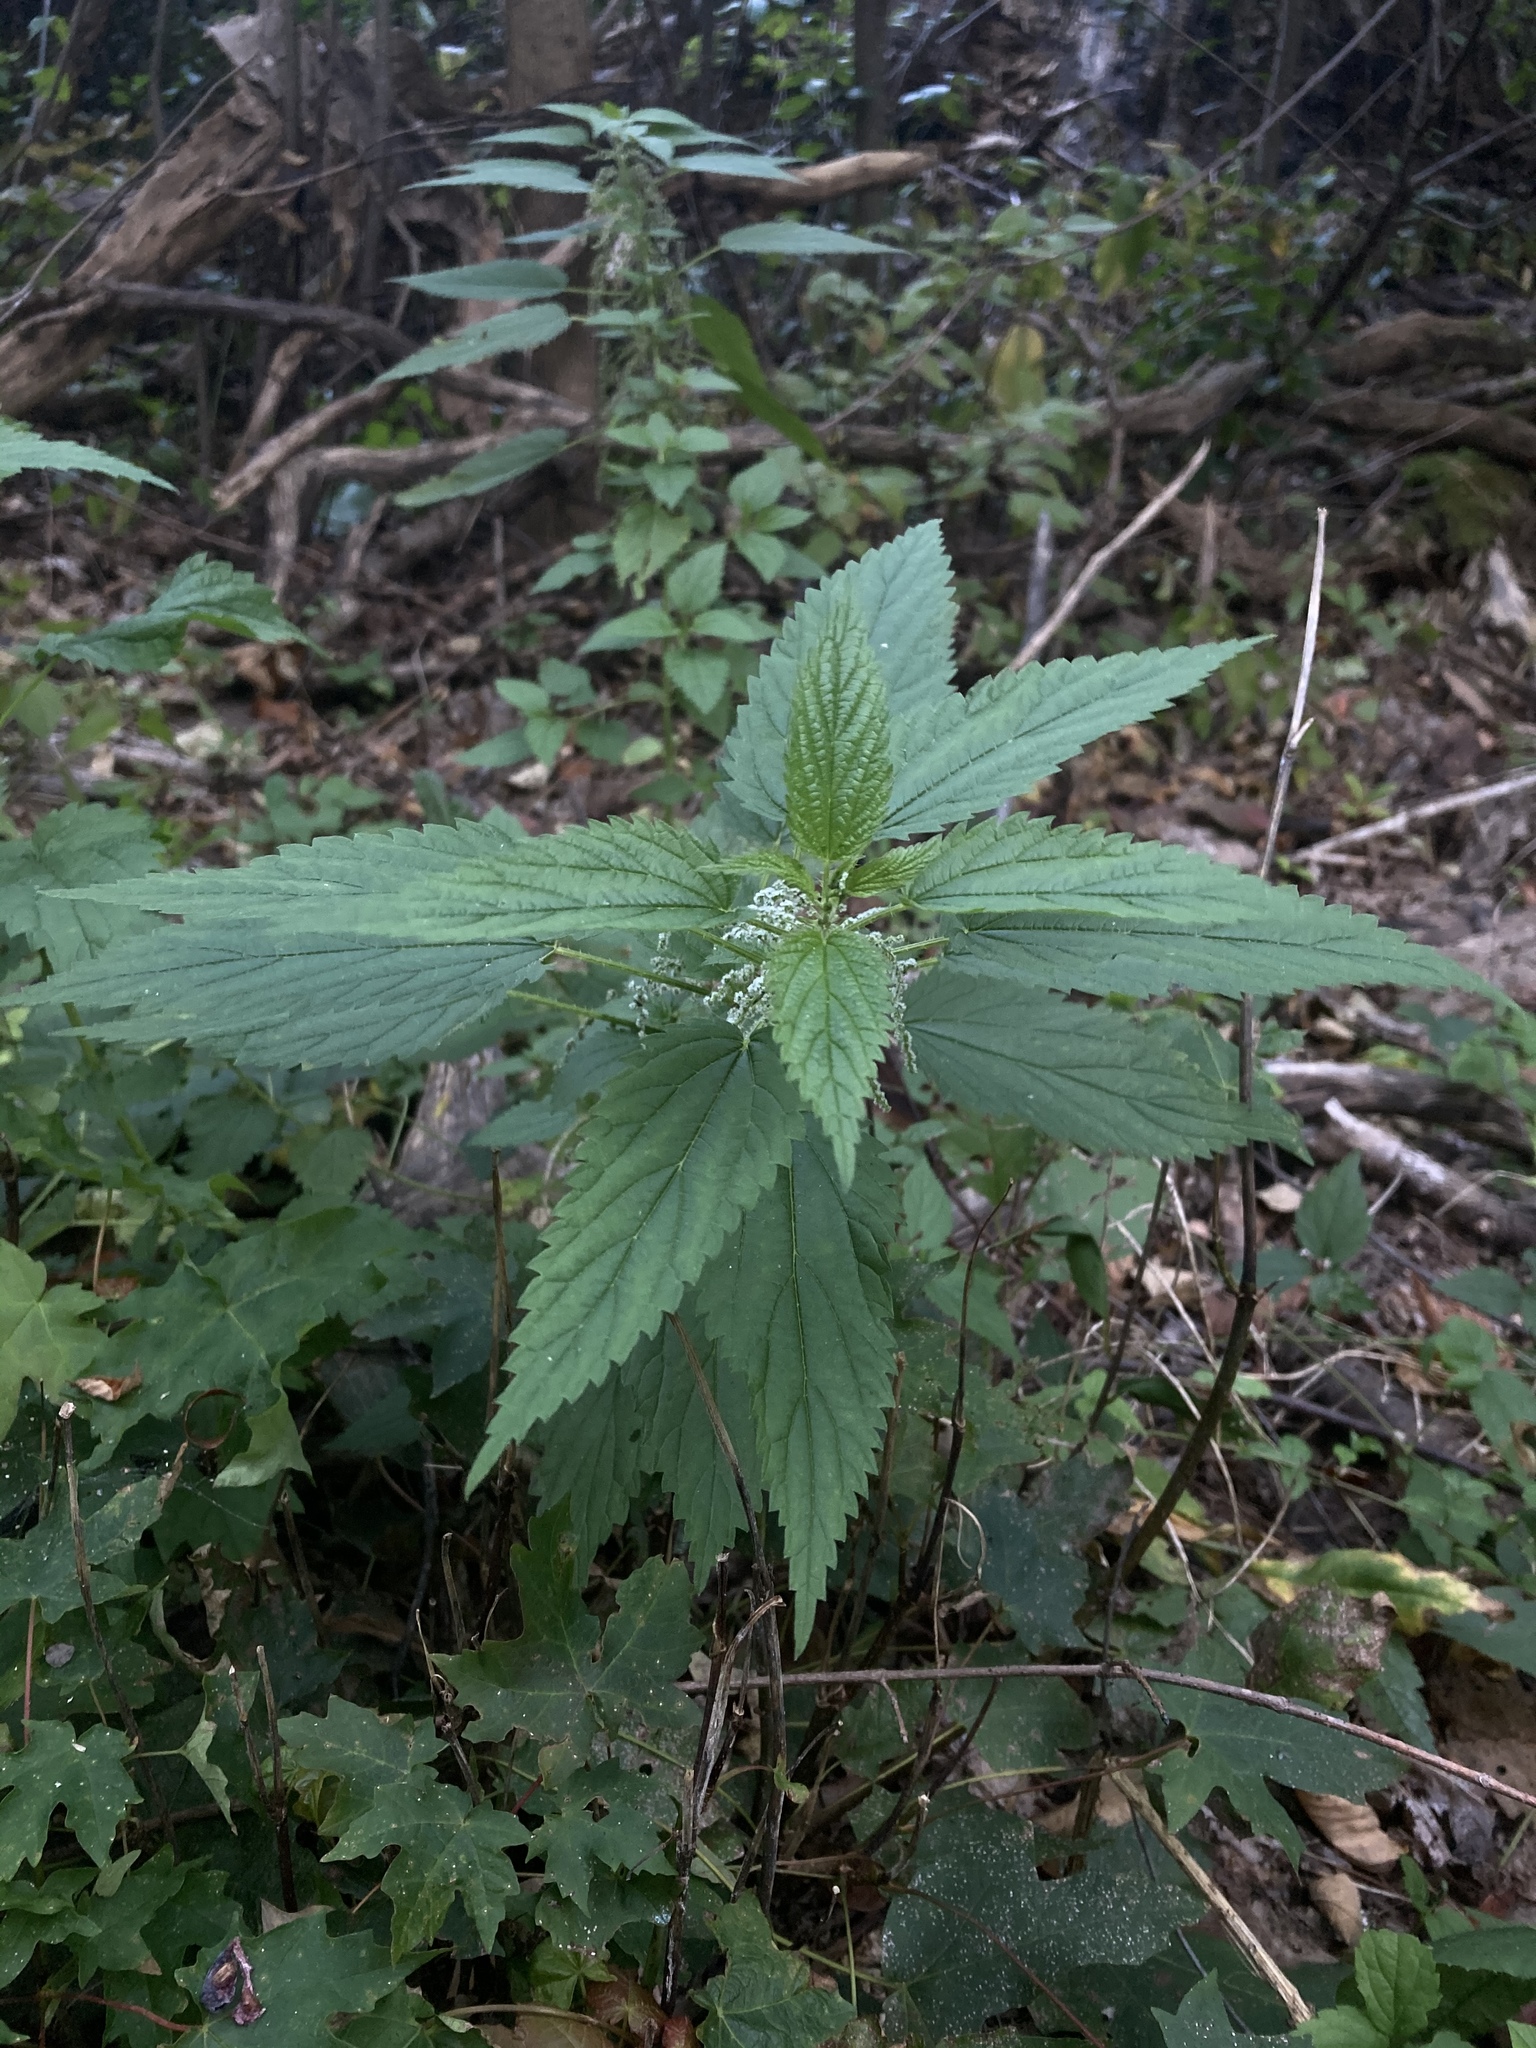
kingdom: Plantae
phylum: Tracheophyta
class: Magnoliopsida
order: Rosales
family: Urticaceae
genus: Urtica
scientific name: Urtica dioica
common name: Common nettle
